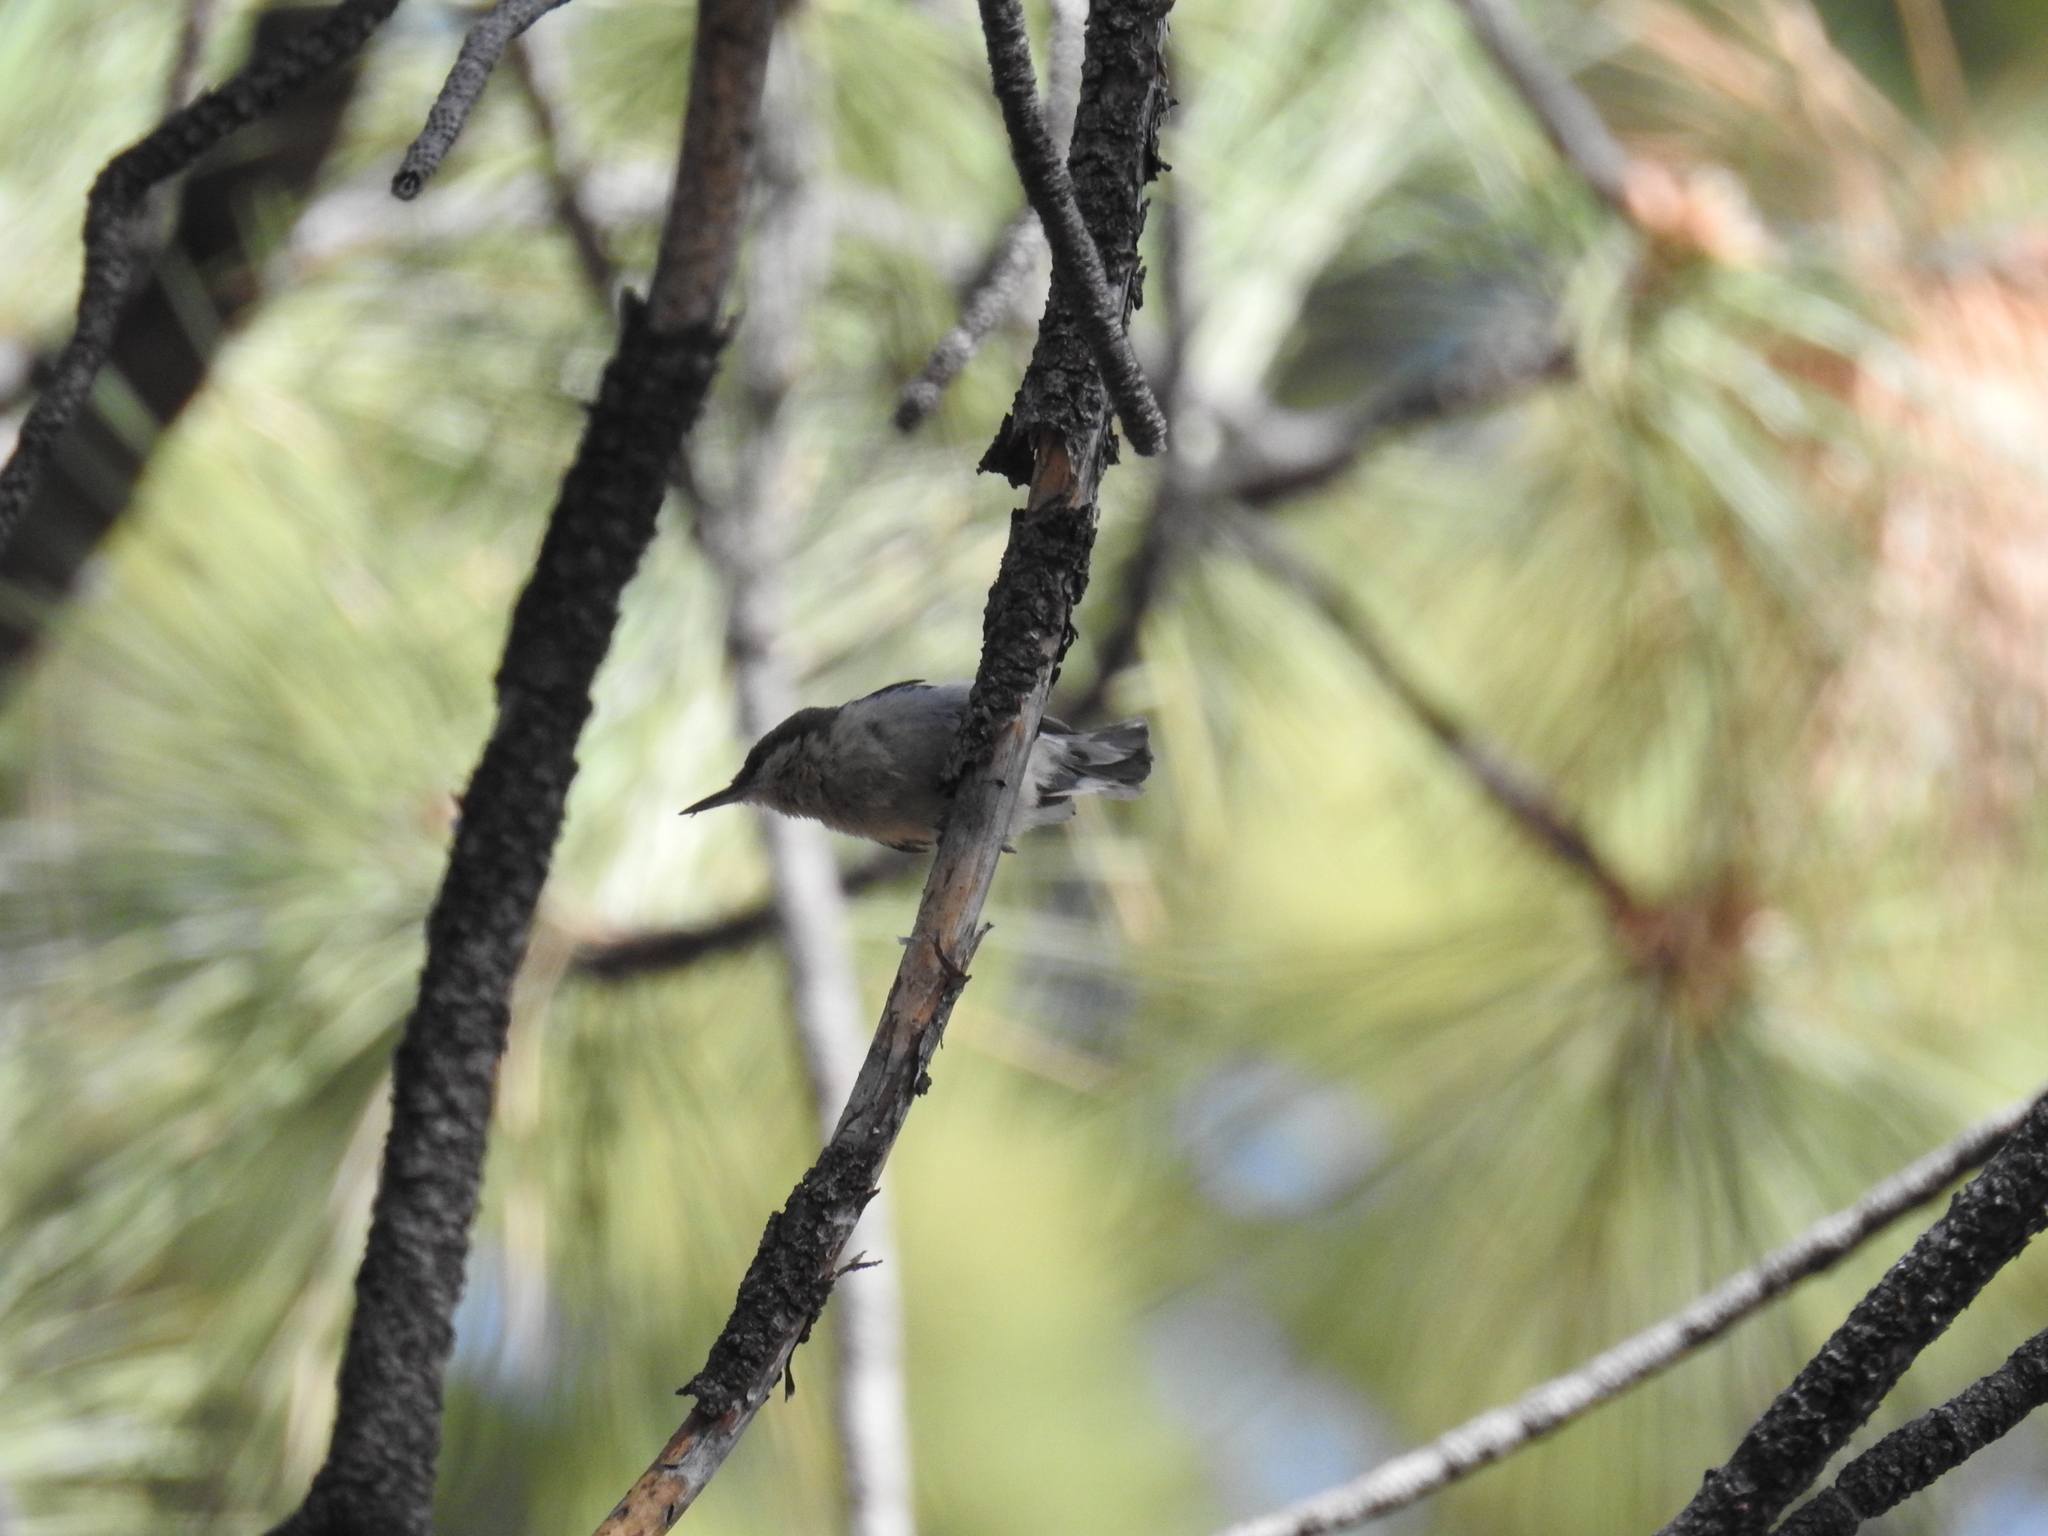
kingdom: Animalia
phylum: Chordata
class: Aves
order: Passeriformes
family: Sittidae
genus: Sitta
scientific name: Sitta pygmaea
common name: Pygmy nuthatch
